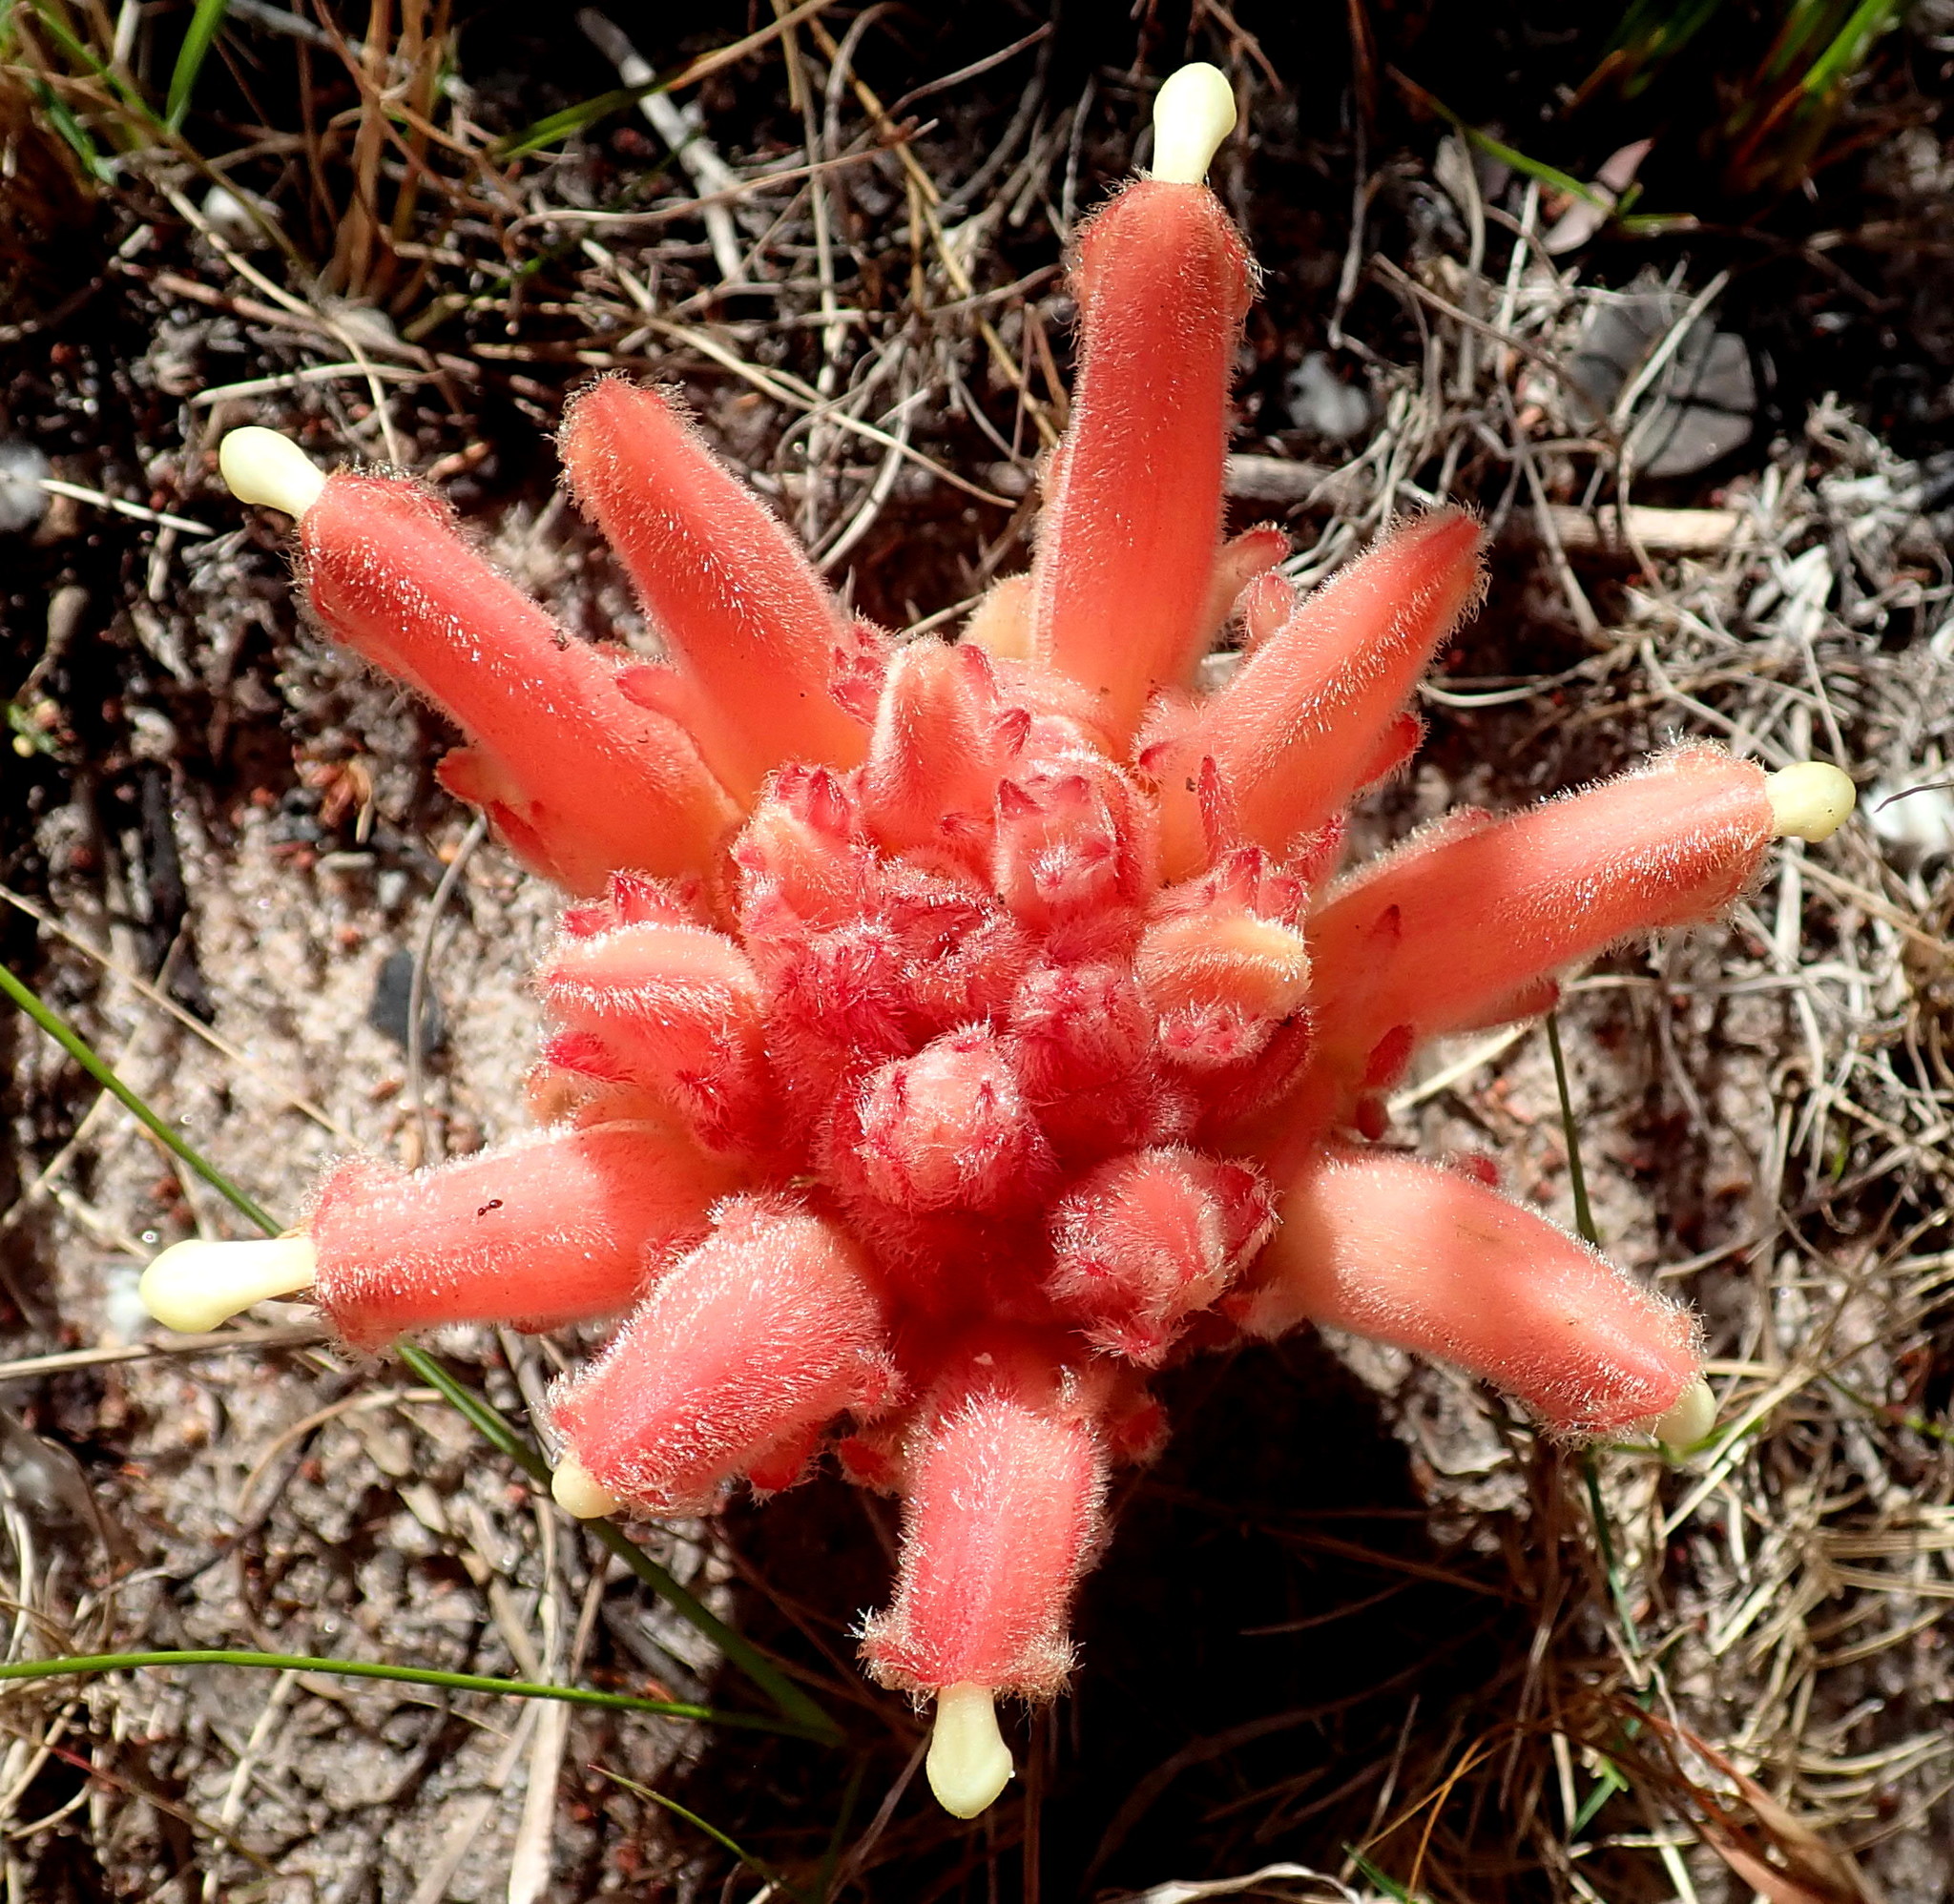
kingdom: Plantae
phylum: Tracheophyta
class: Magnoliopsida
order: Lamiales
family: Orobanchaceae
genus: Hyobanche
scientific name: Hyobanche glabrata
